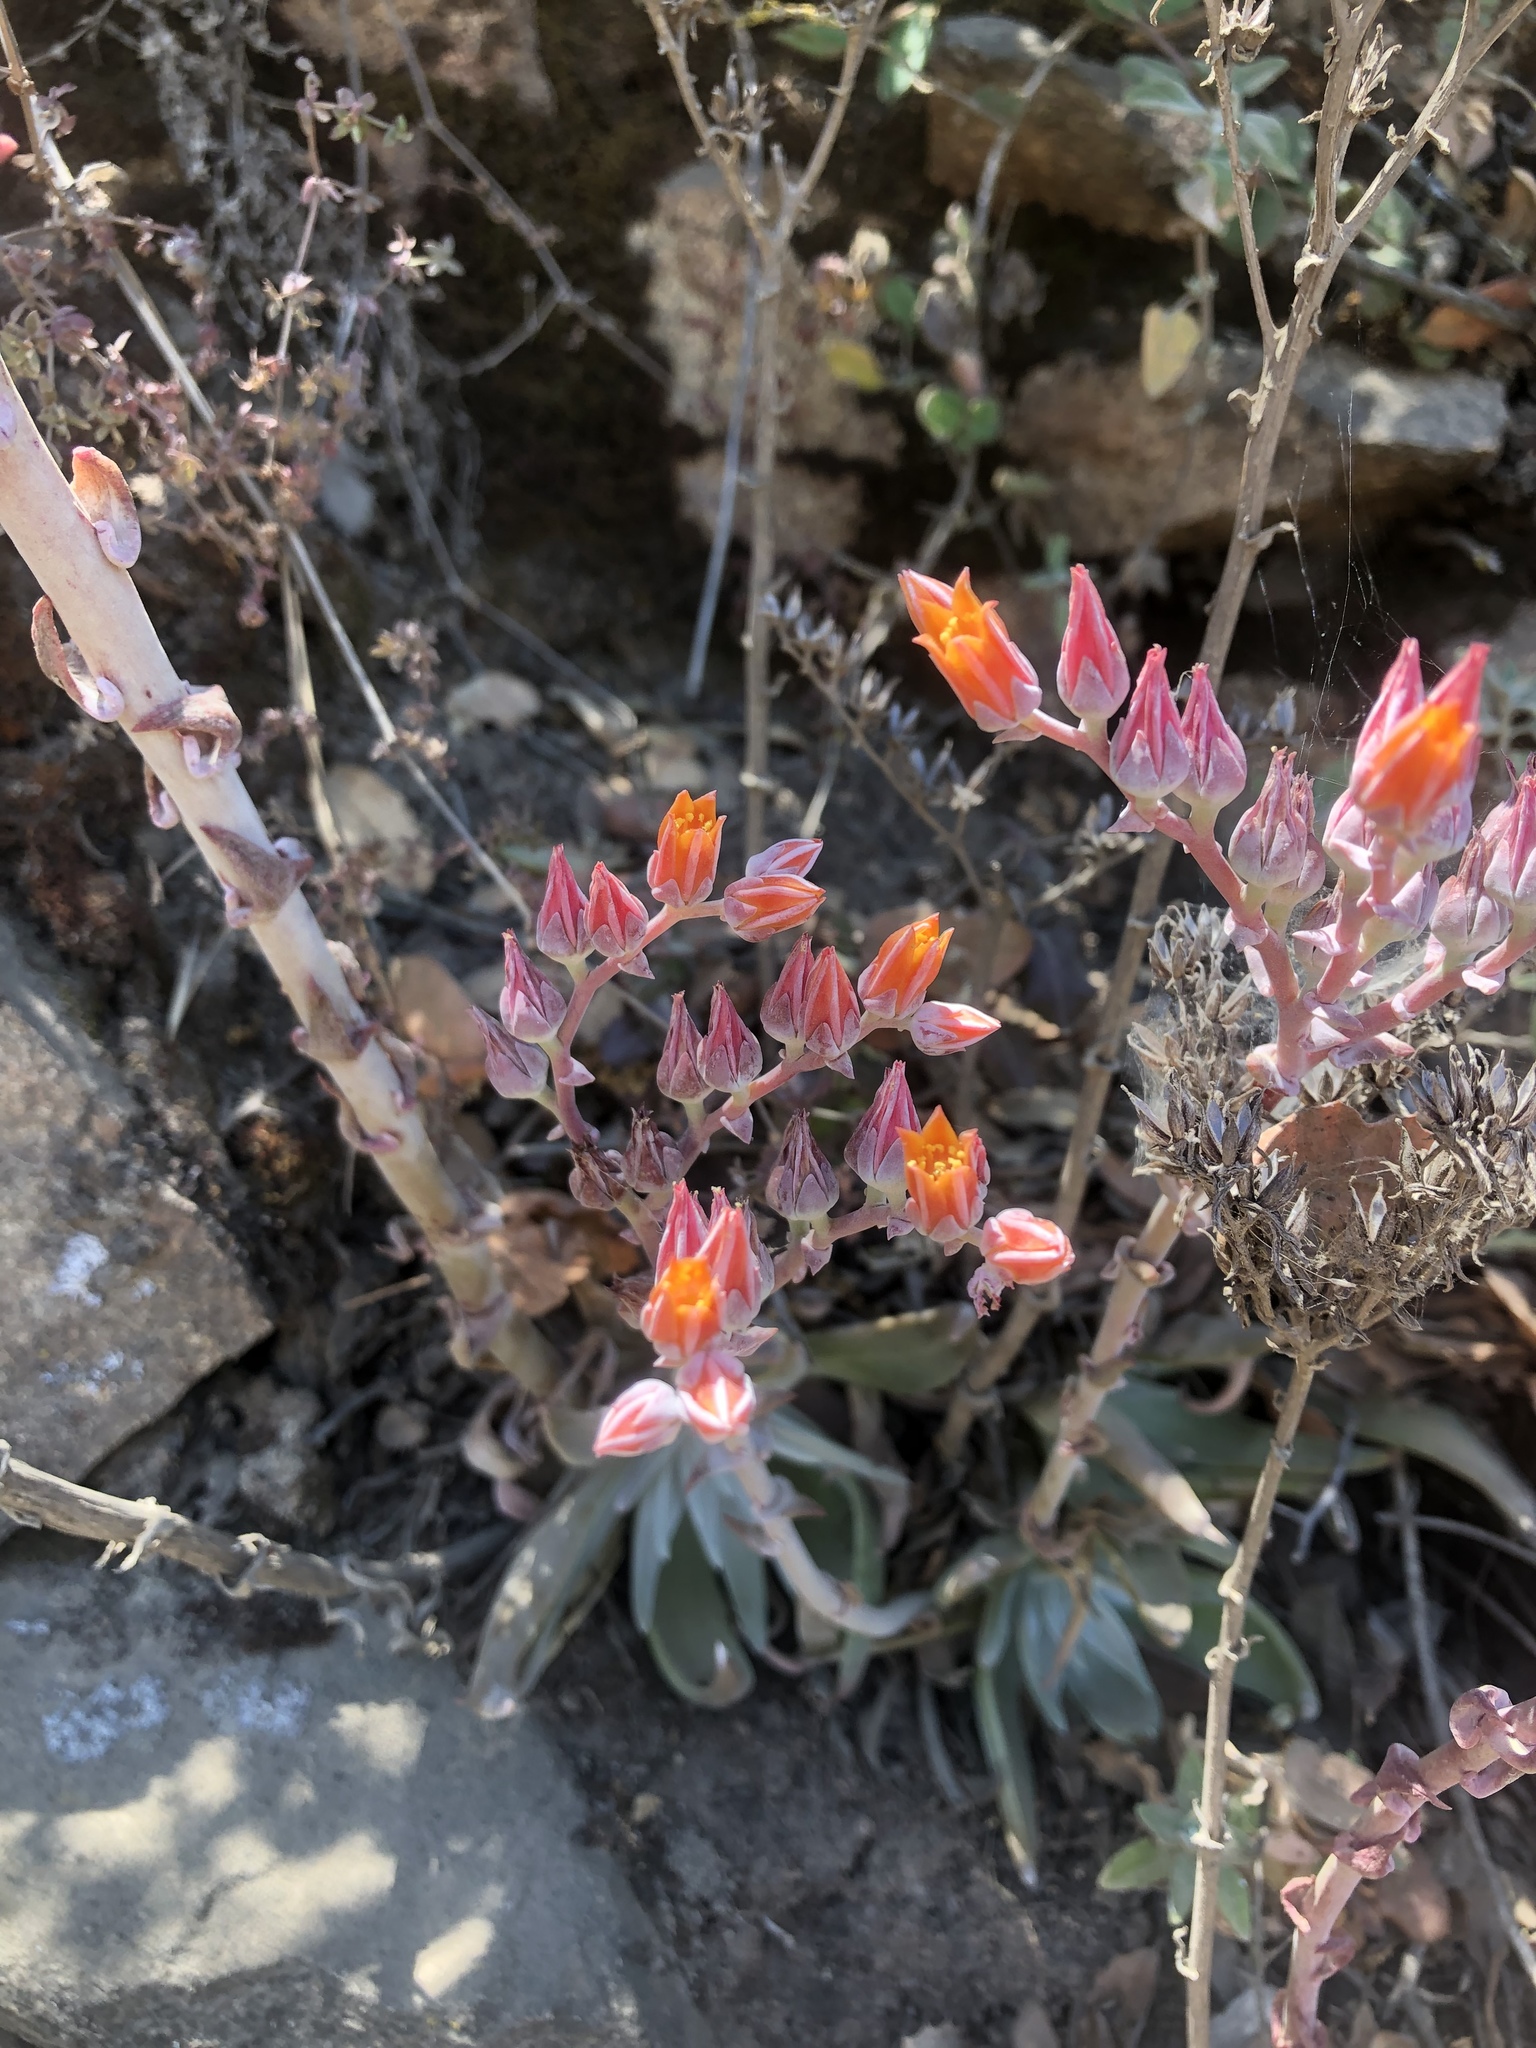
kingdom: Plantae
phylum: Tracheophyta
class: Magnoliopsida
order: Saxifragales
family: Crassulaceae
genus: Dudleya
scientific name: Dudleya lanceolata
